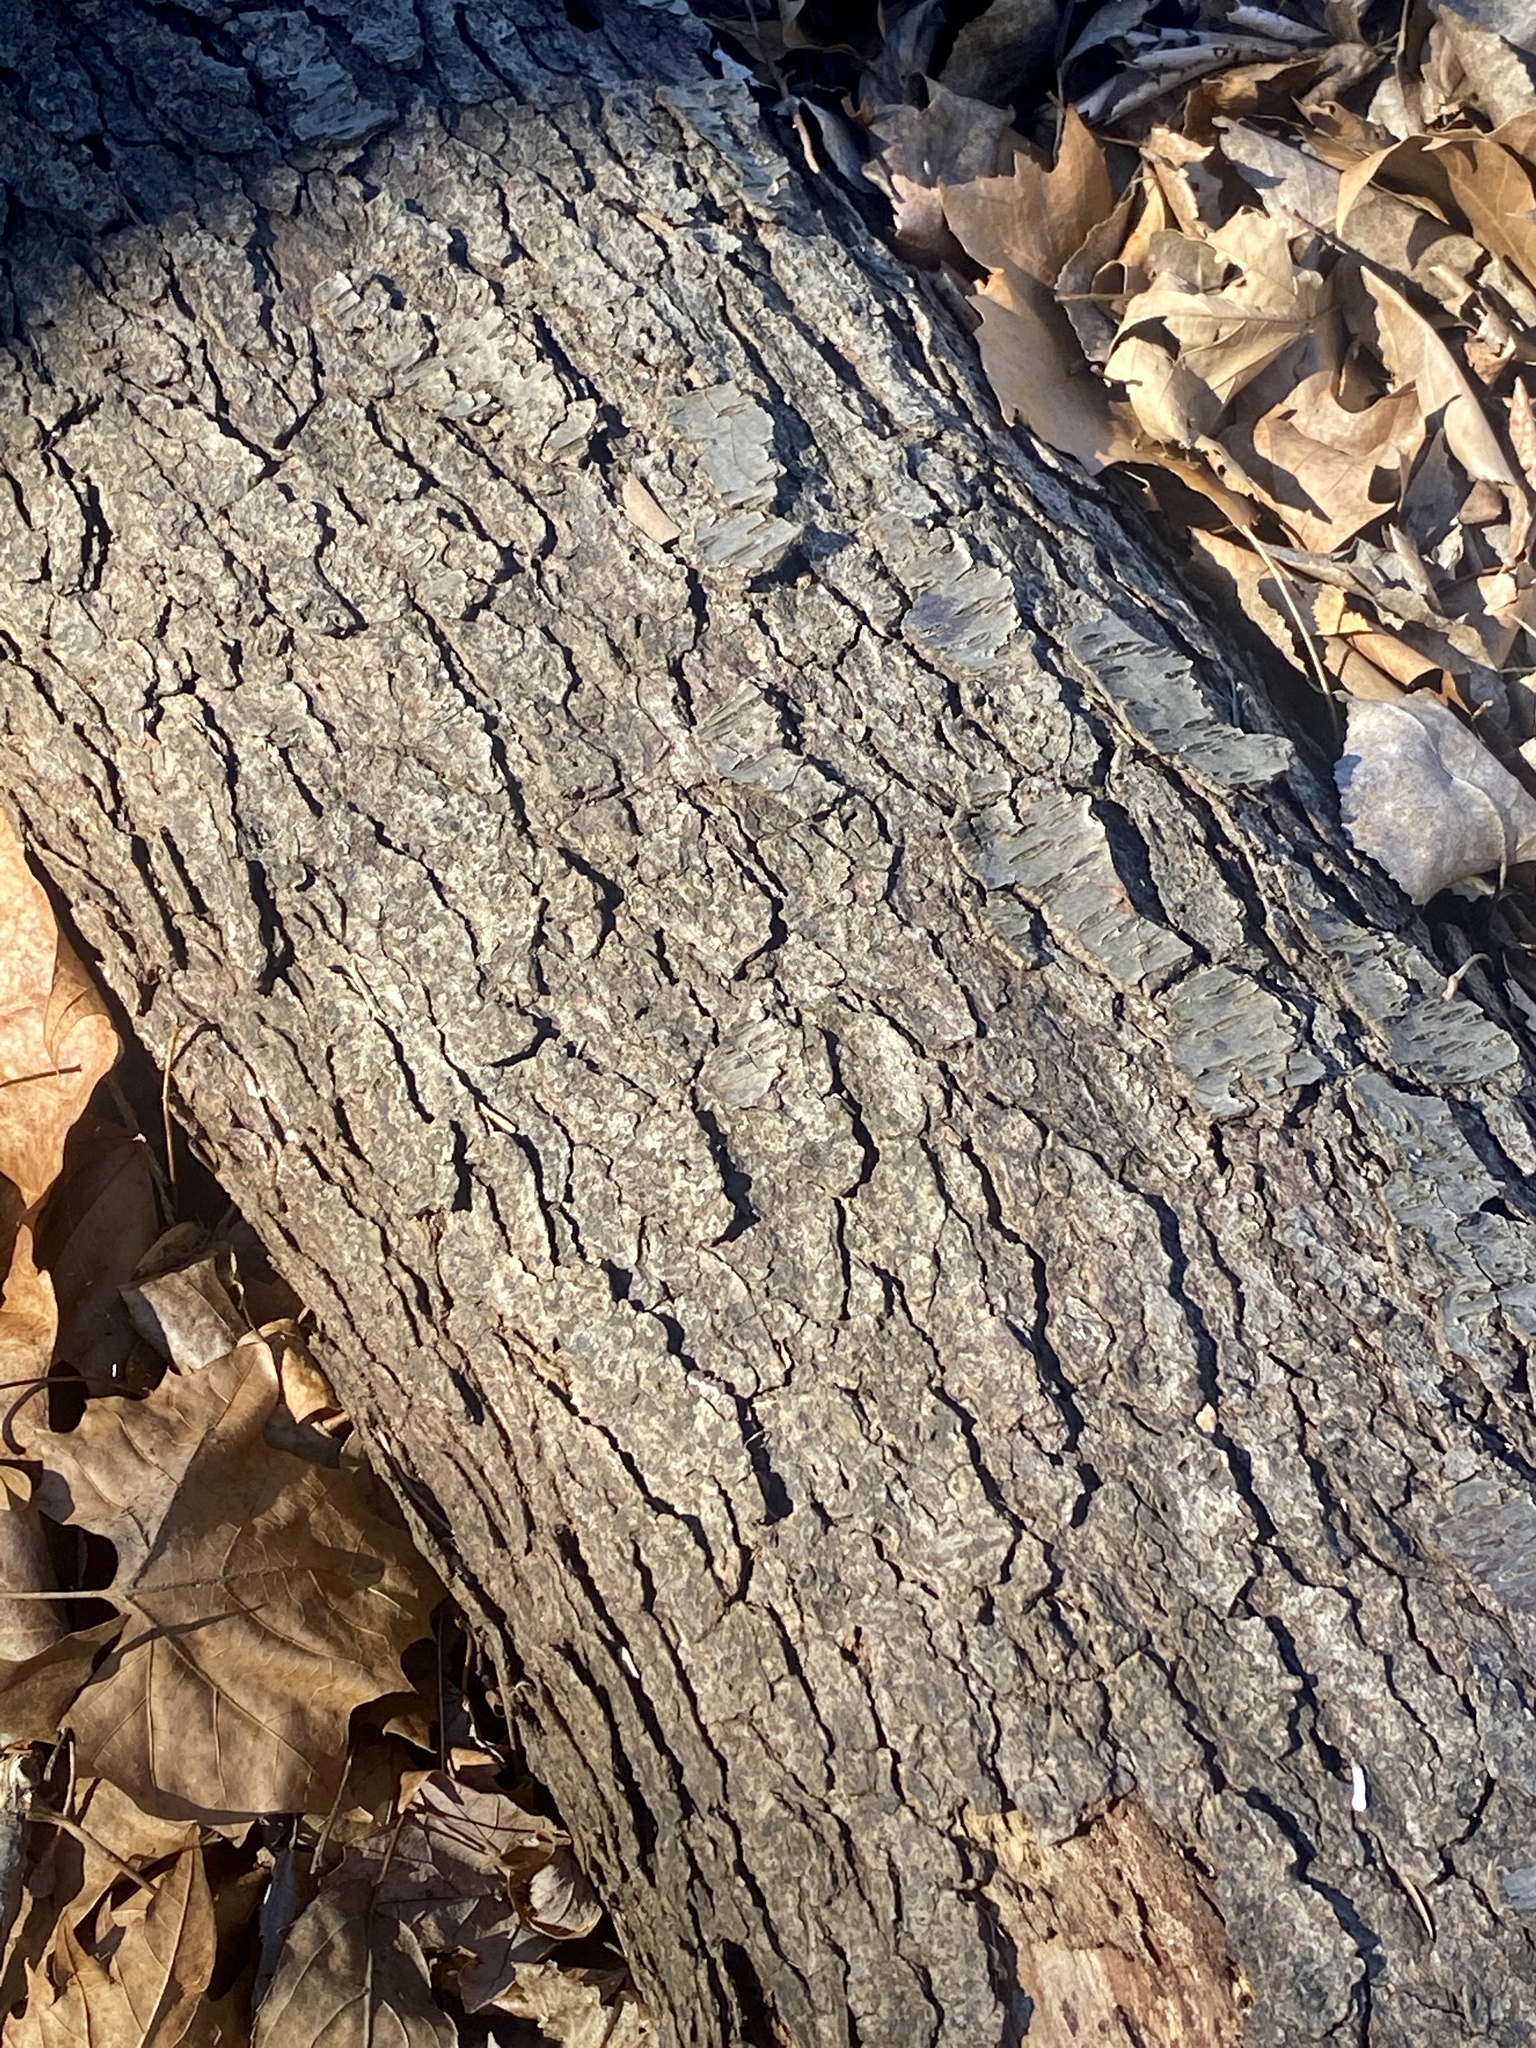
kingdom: Plantae
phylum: Tracheophyta
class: Magnoliopsida
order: Rosales
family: Rosaceae
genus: Prunus
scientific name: Prunus serotina
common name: Black cherry
